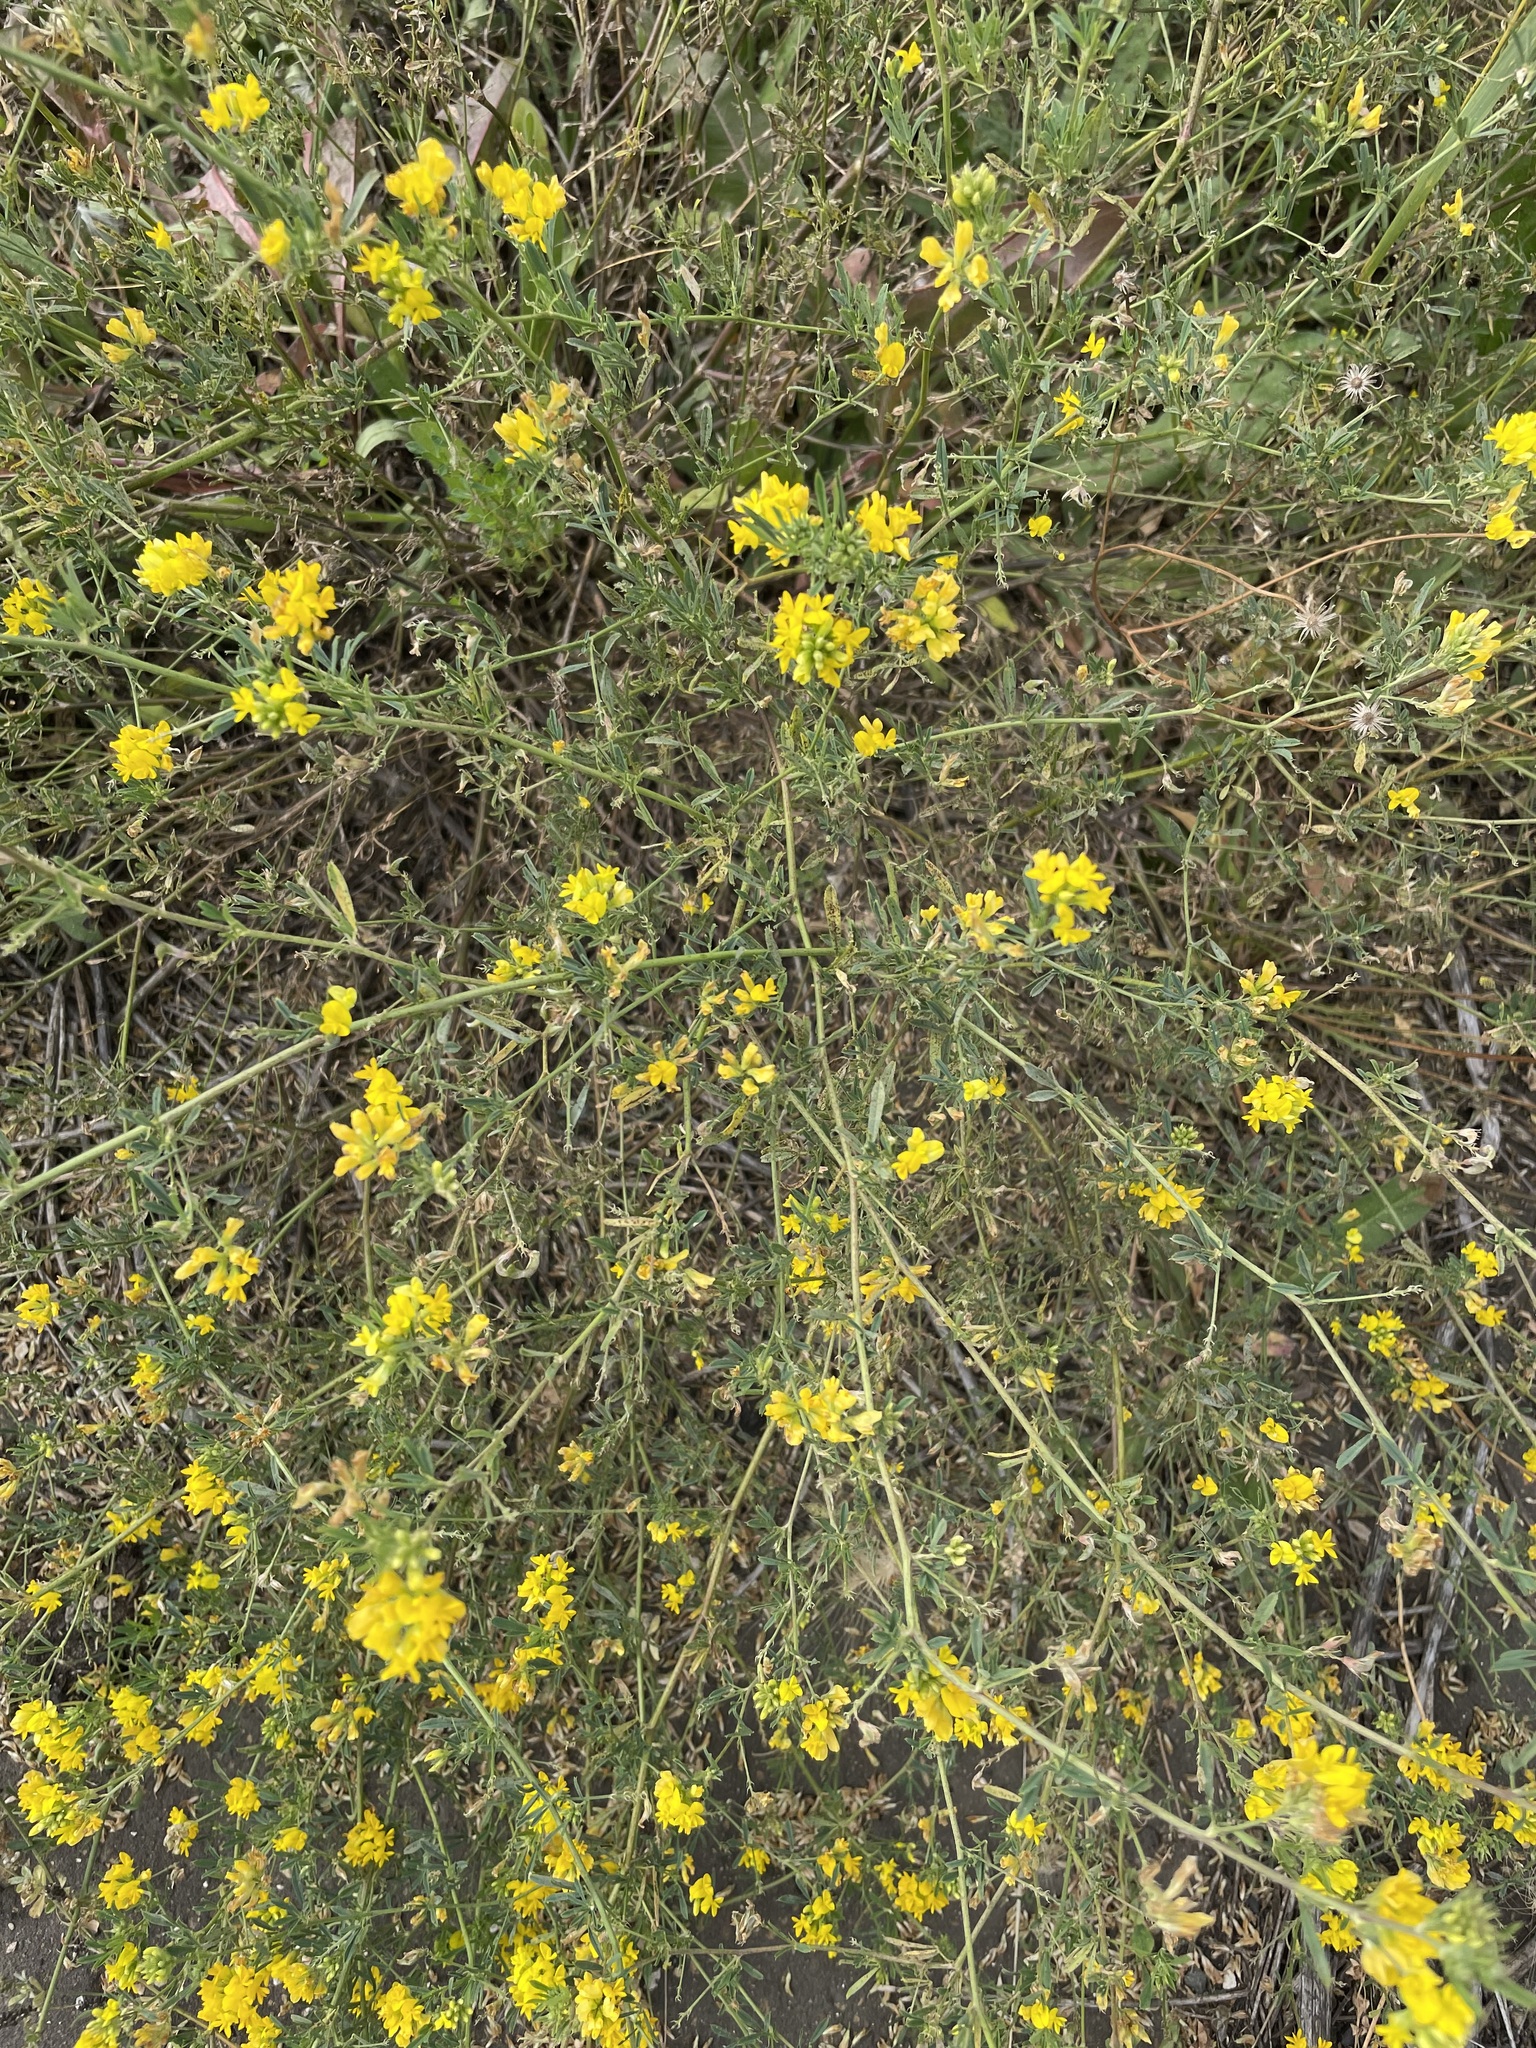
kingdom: Plantae
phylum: Tracheophyta
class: Magnoliopsida
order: Fabales
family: Fabaceae
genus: Medicago
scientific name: Medicago falcata
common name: Sickle medick
